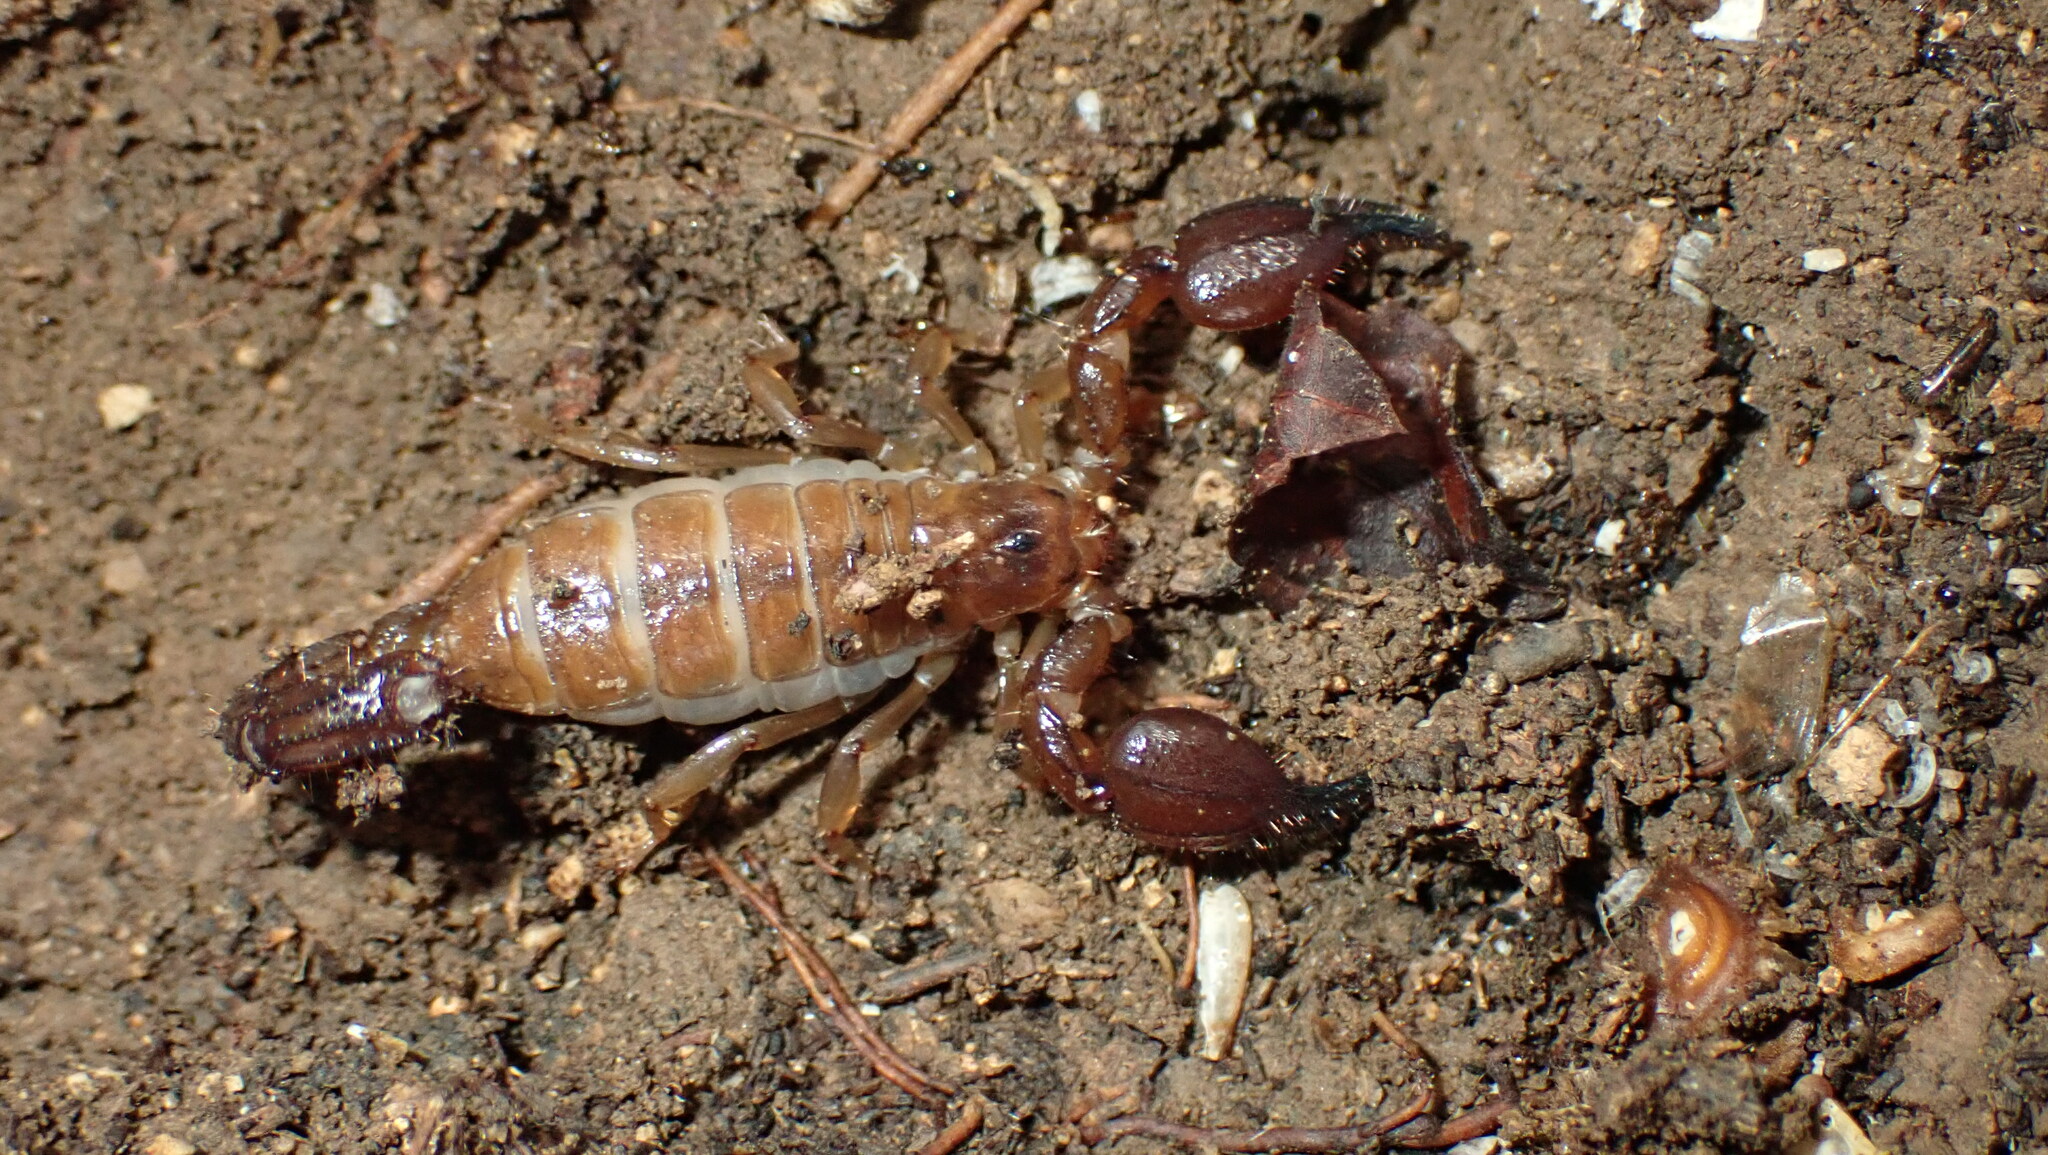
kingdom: Animalia
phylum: Arthropoda
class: Arachnida
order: Scorpiones
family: Diplocentridae
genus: Heteronebo
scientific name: Heteronebo portoricensis
